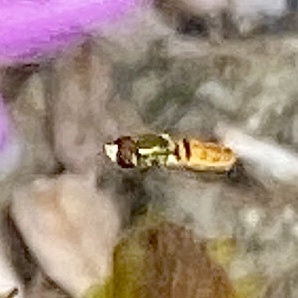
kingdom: Animalia
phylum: Arthropoda
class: Insecta
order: Diptera
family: Syrphidae
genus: Toxomerus
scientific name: Toxomerus marginatus
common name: Syrphid fly
